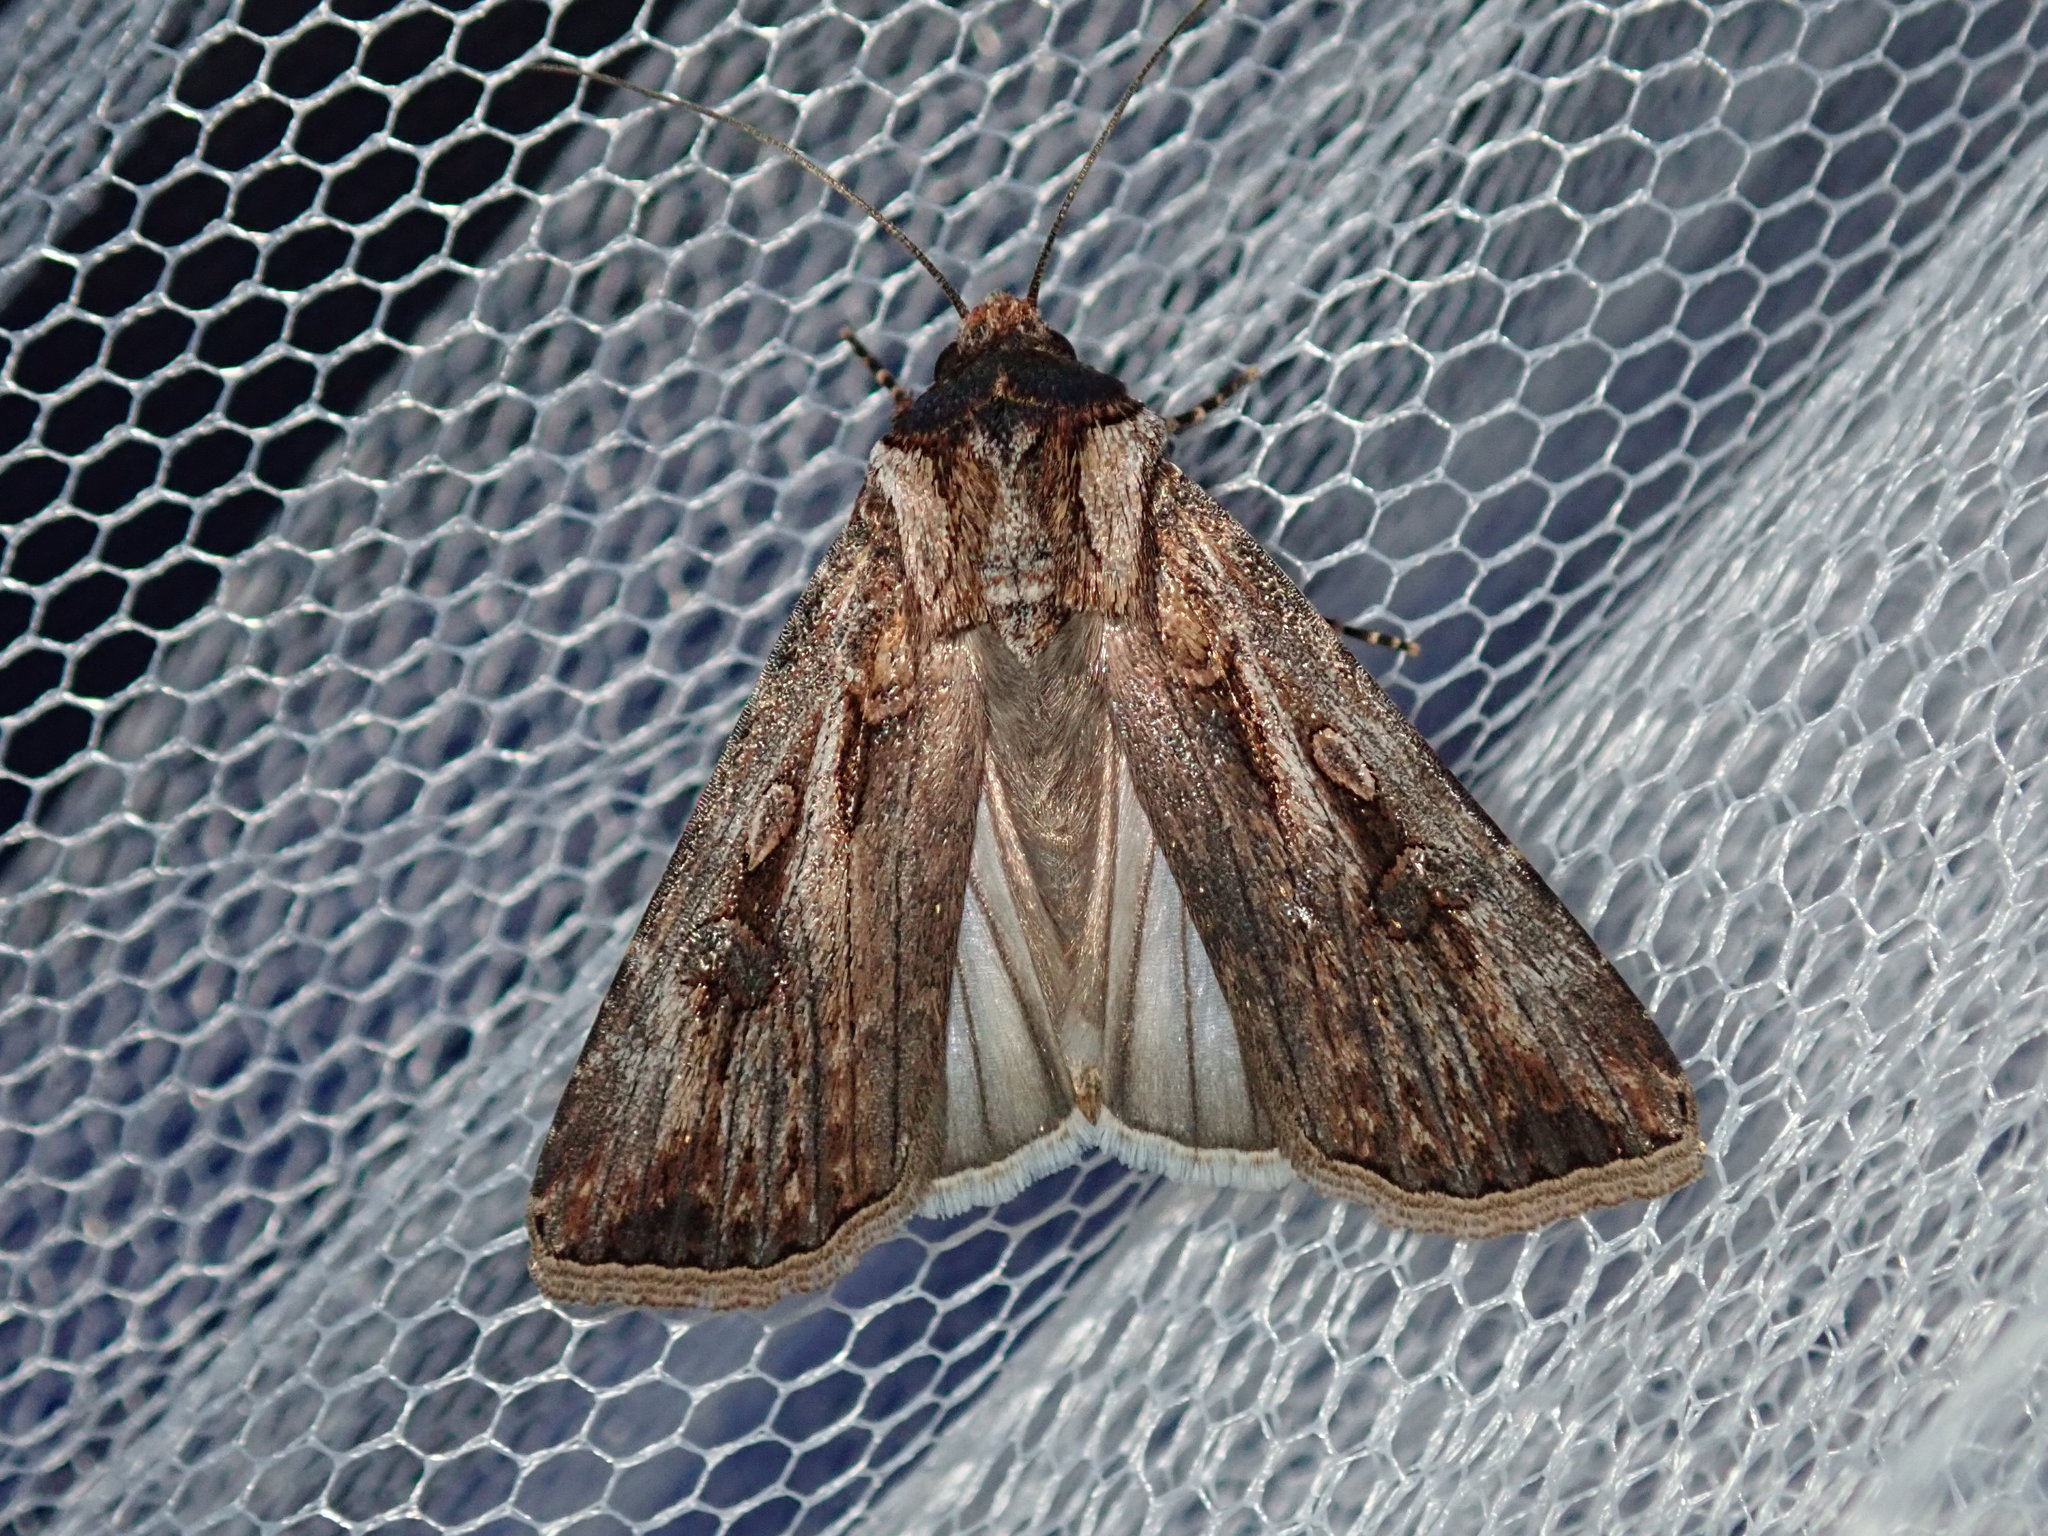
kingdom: Animalia
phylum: Arthropoda
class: Insecta
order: Lepidoptera
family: Noctuidae
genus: Agrotis
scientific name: Agrotis munda
